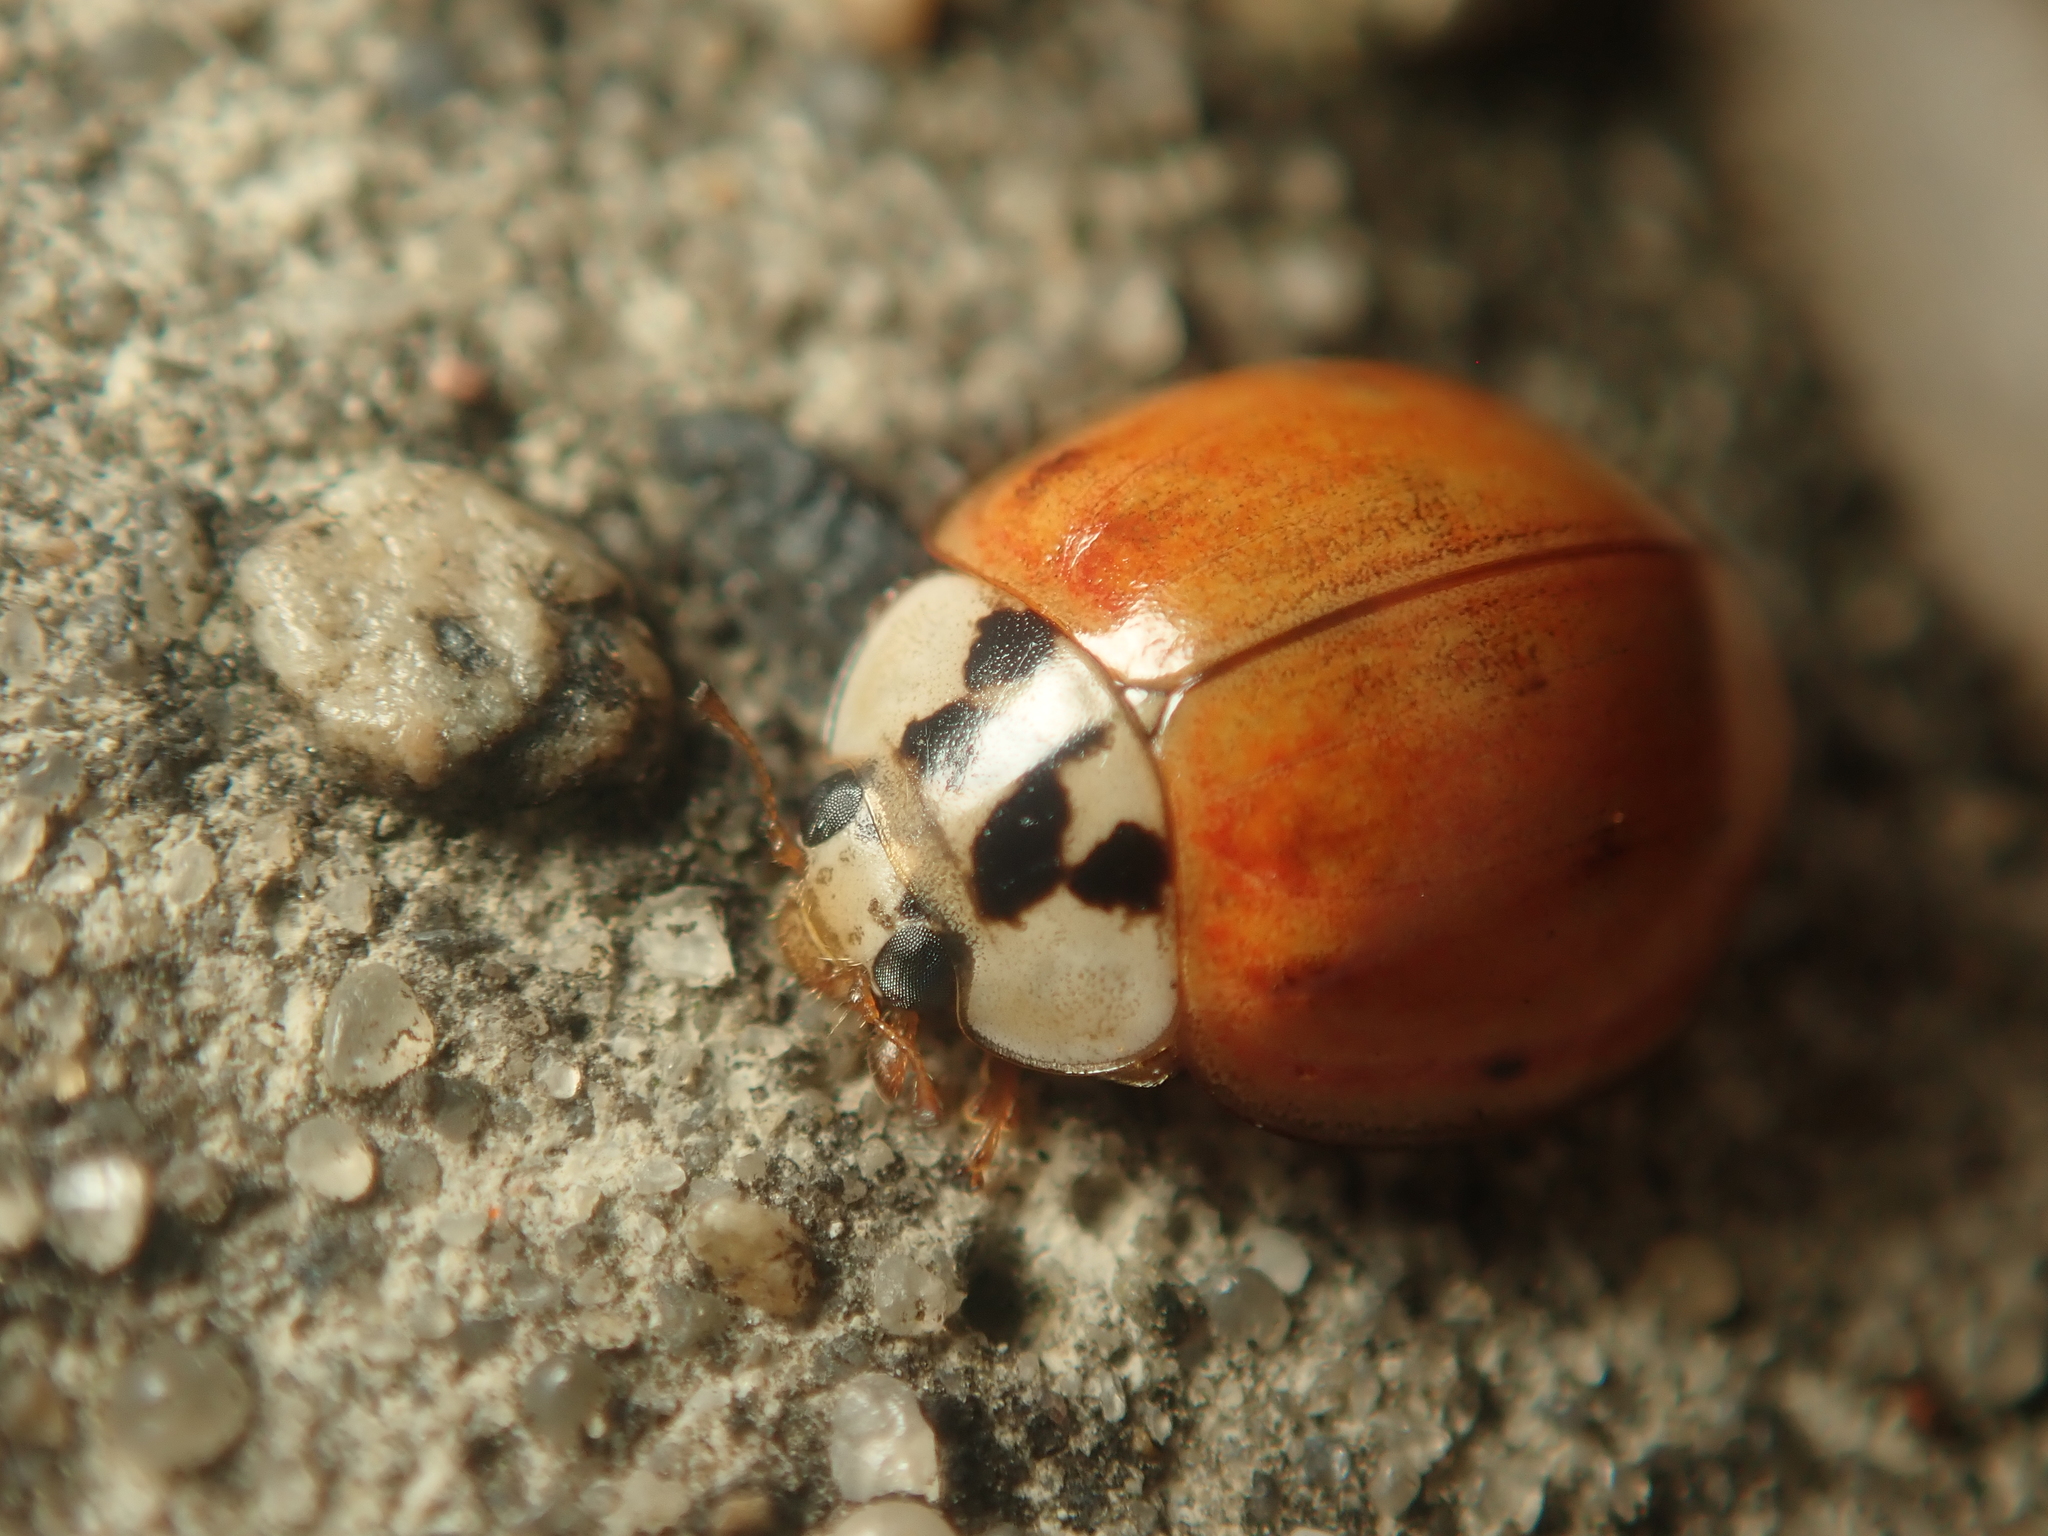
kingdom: Animalia
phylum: Arthropoda
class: Insecta
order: Coleoptera
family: Coccinellidae
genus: Harmonia
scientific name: Harmonia axyridis
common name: Harlequin ladybird
